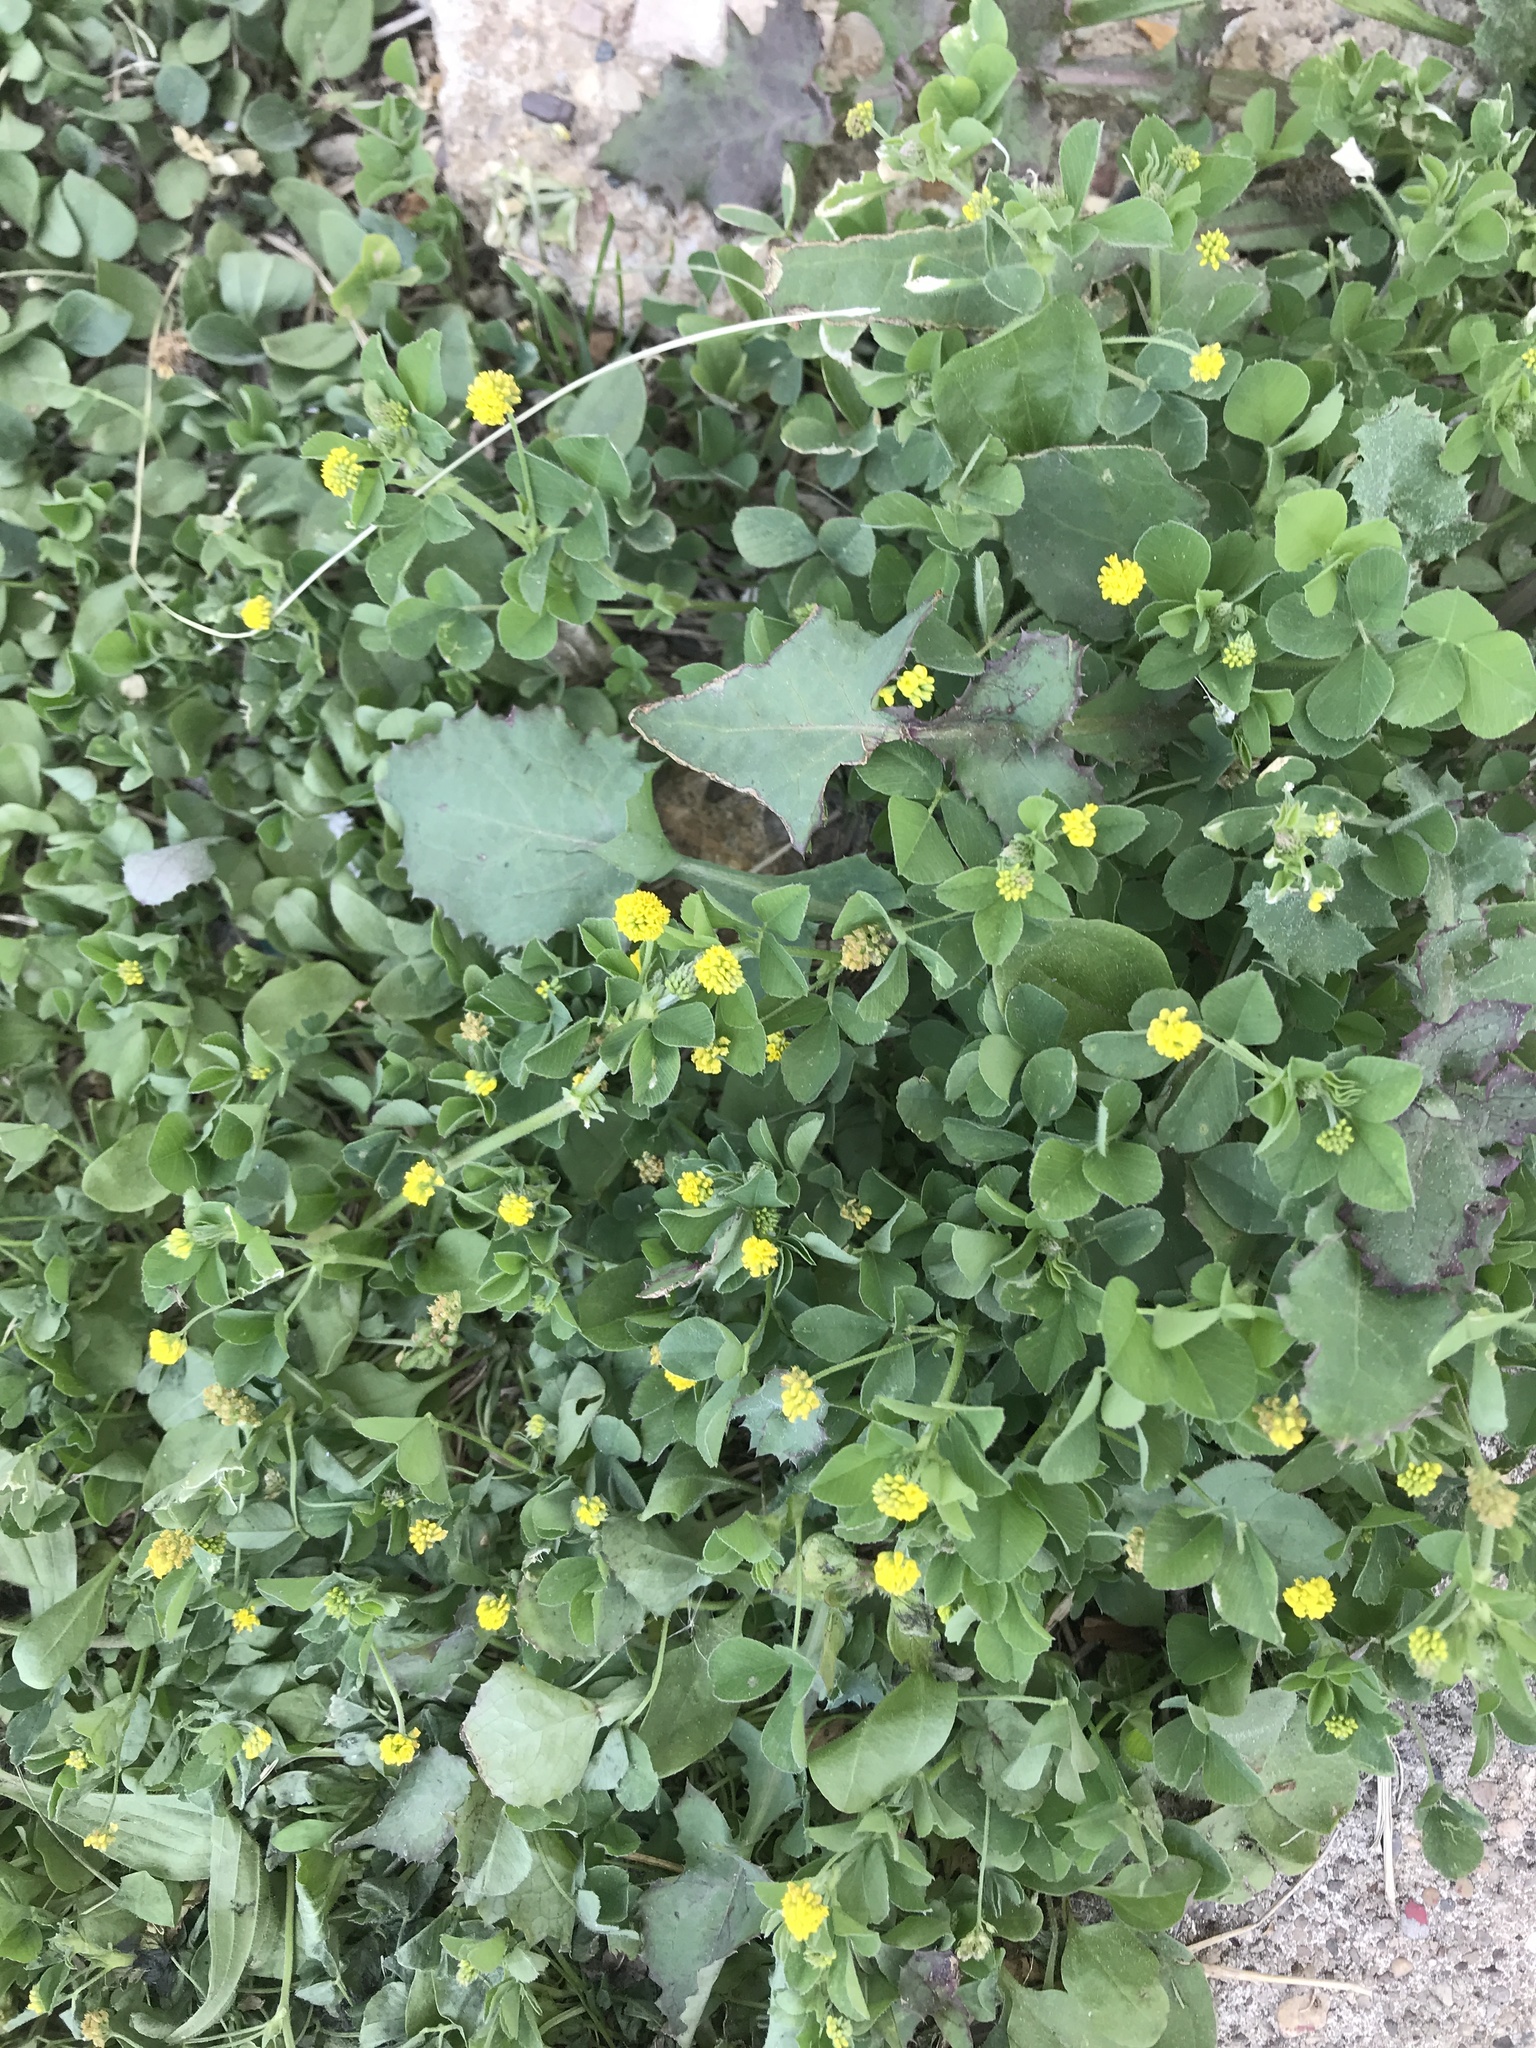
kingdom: Plantae
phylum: Tracheophyta
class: Magnoliopsida
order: Fabales
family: Fabaceae
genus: Medicago
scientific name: Medicago lupulina
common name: Black medick
